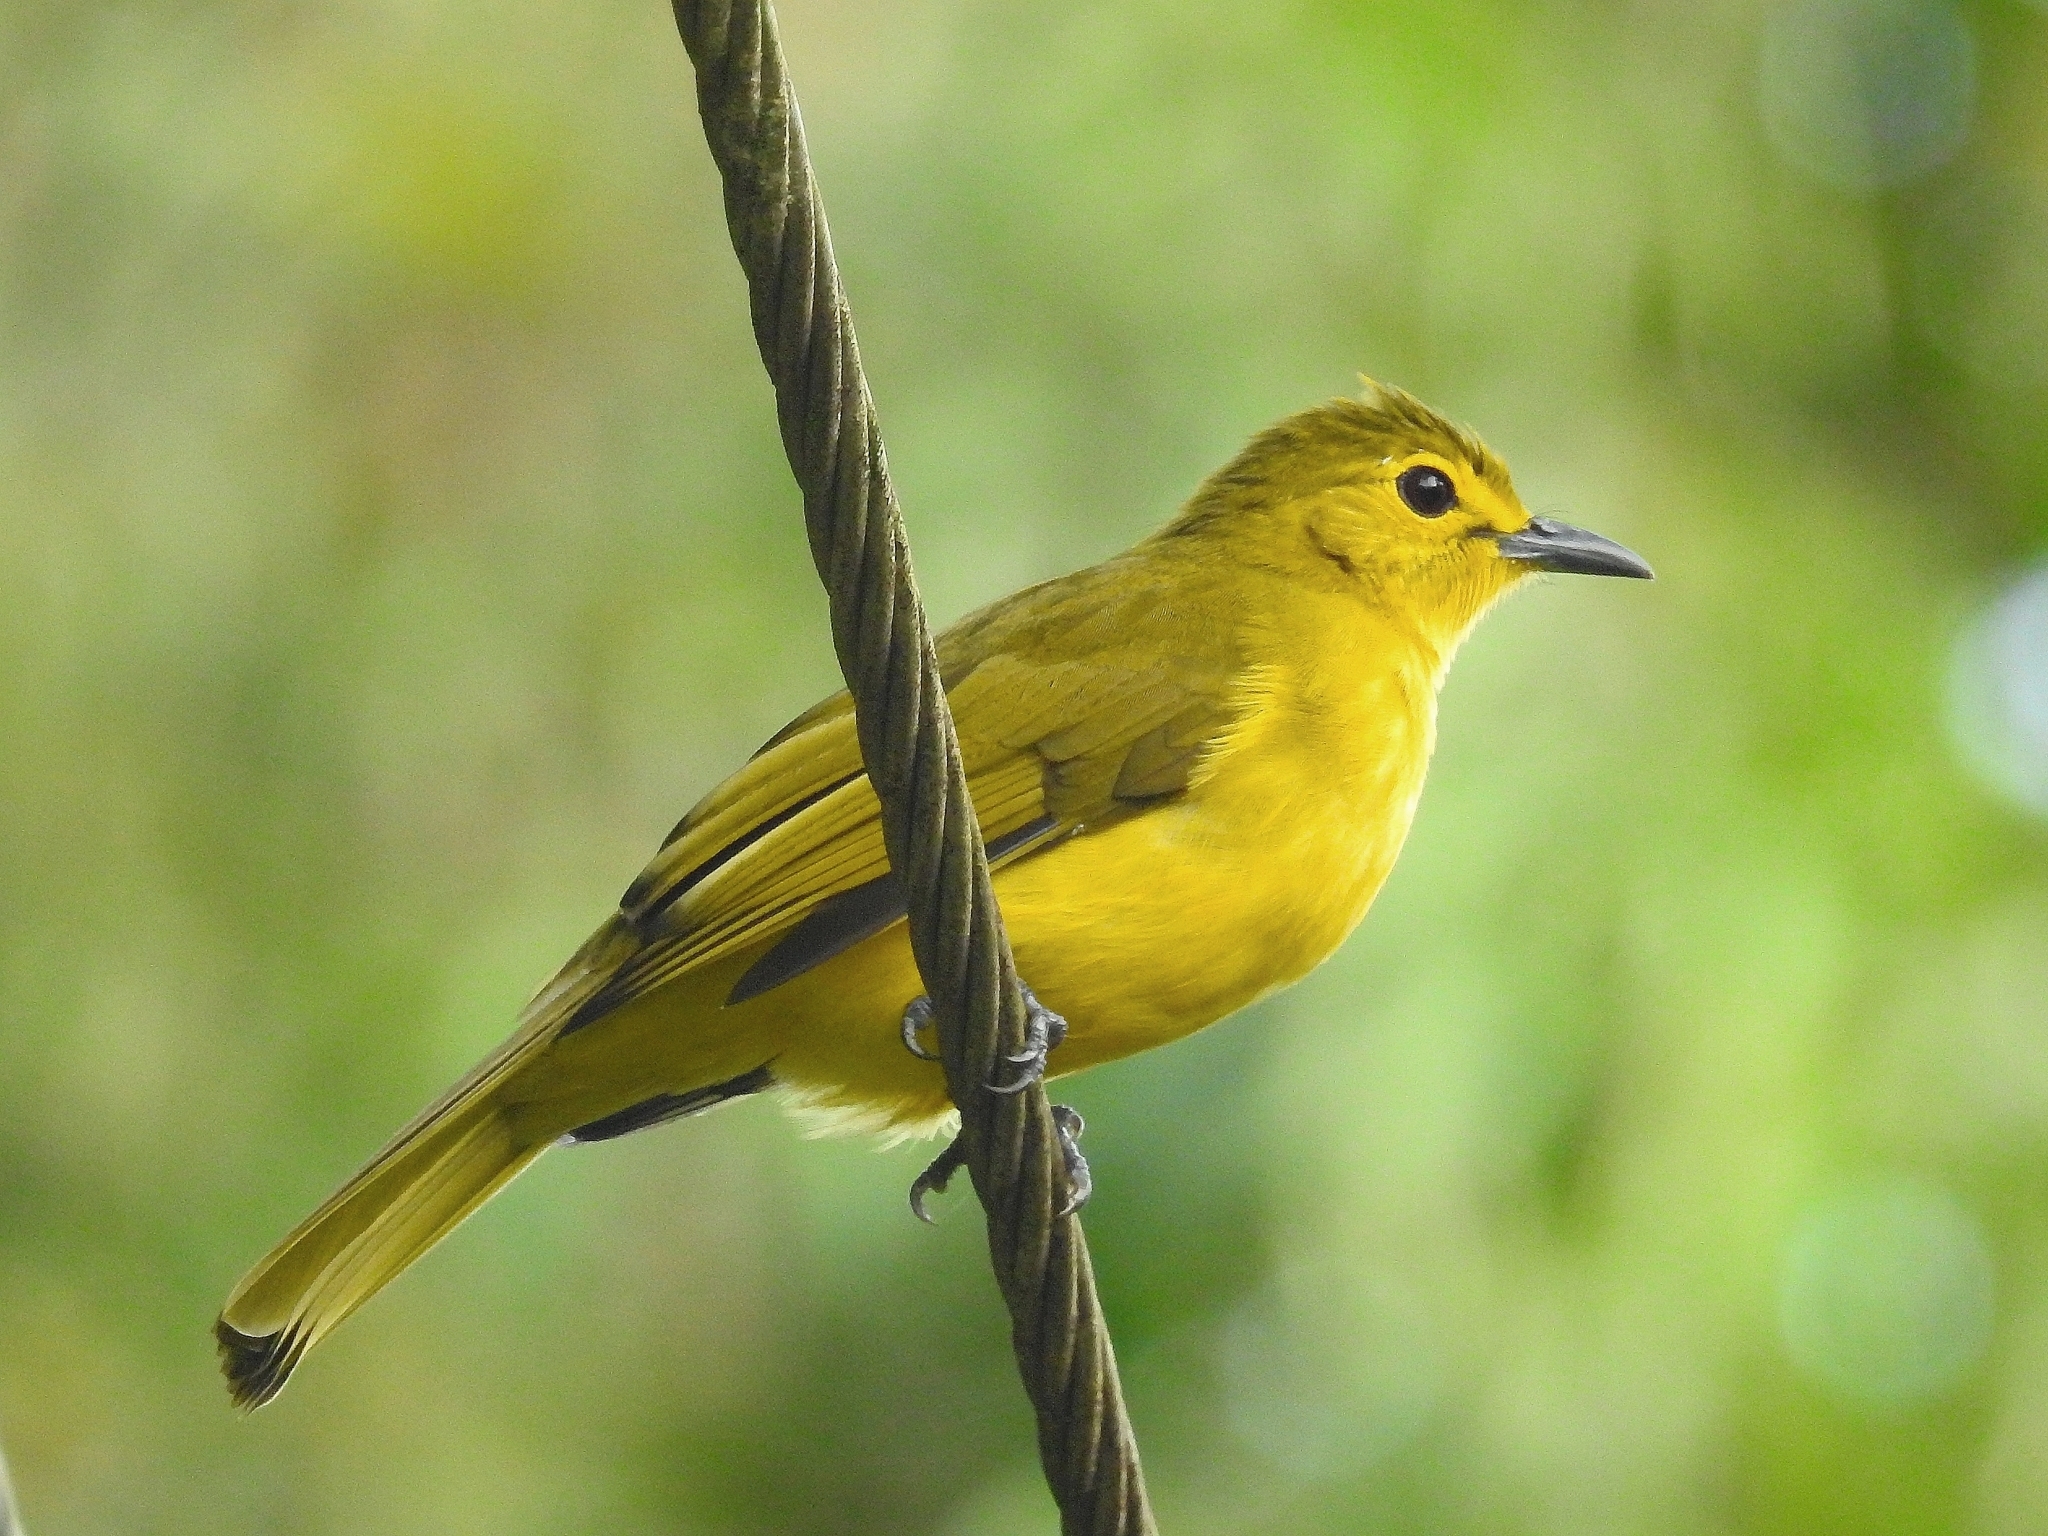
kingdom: Animalia
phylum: Chordata
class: Aves
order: Passeriformes
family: Pycnonotidae
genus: Acritillas
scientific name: Acritillas indica
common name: Yellow-browed bulbul
